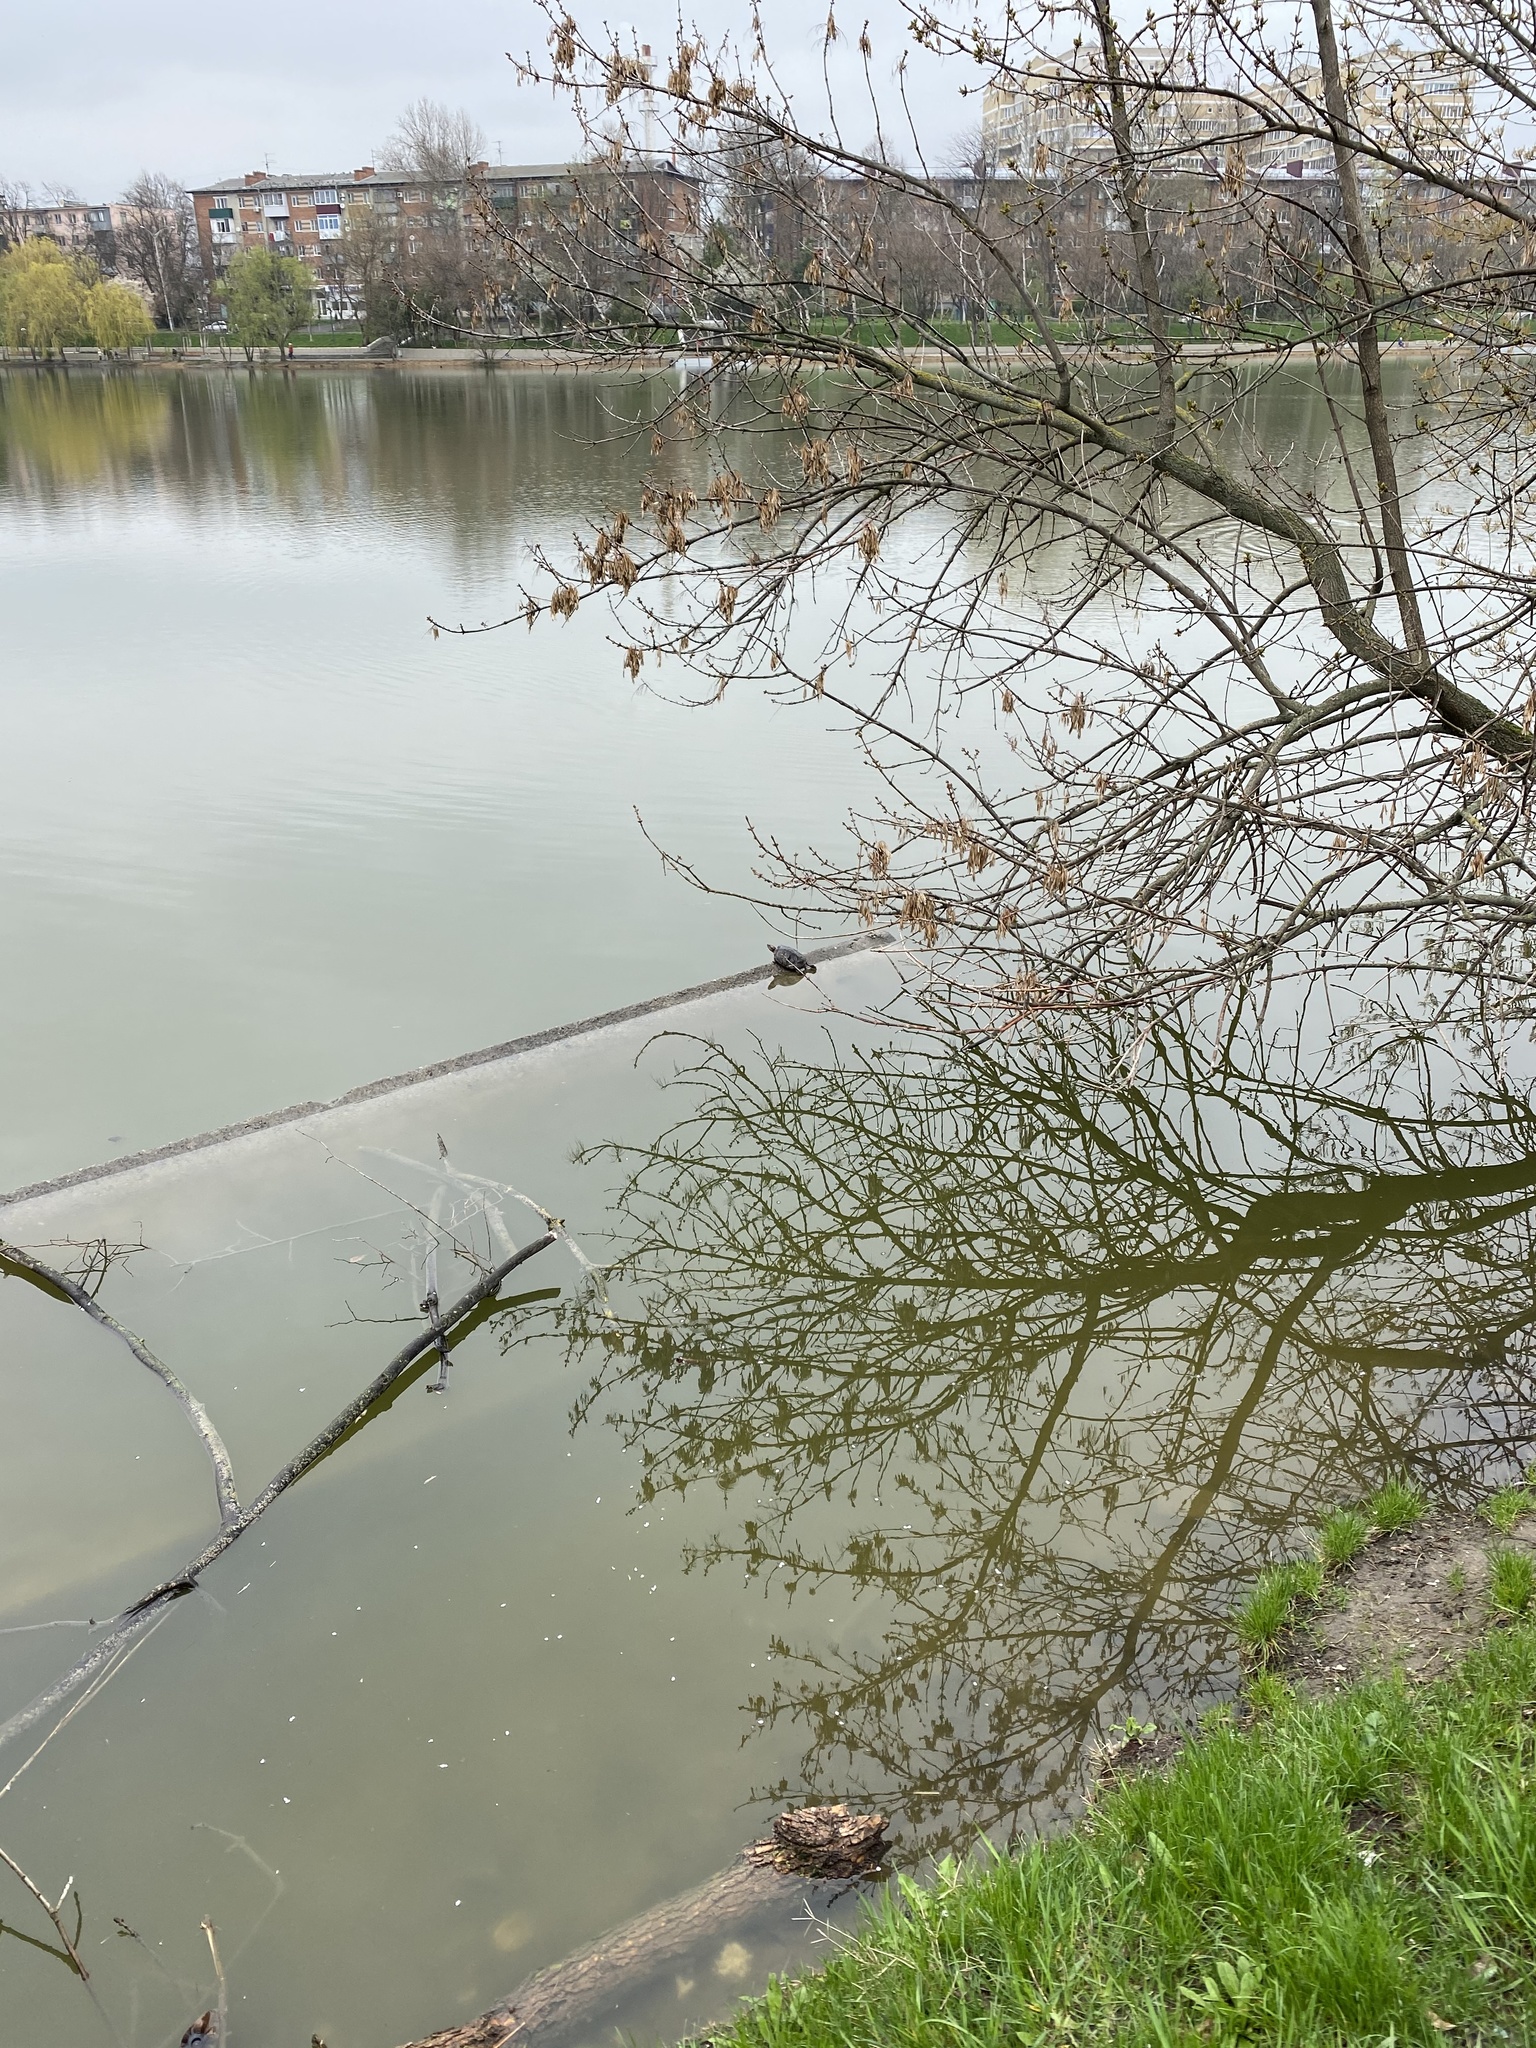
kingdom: Plantae
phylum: Tracheophyta
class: Magnoliopsida
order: Lamiales
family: Oleaceae
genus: Fraxinus
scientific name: Fraxinus pennsylvanica
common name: Green ash
